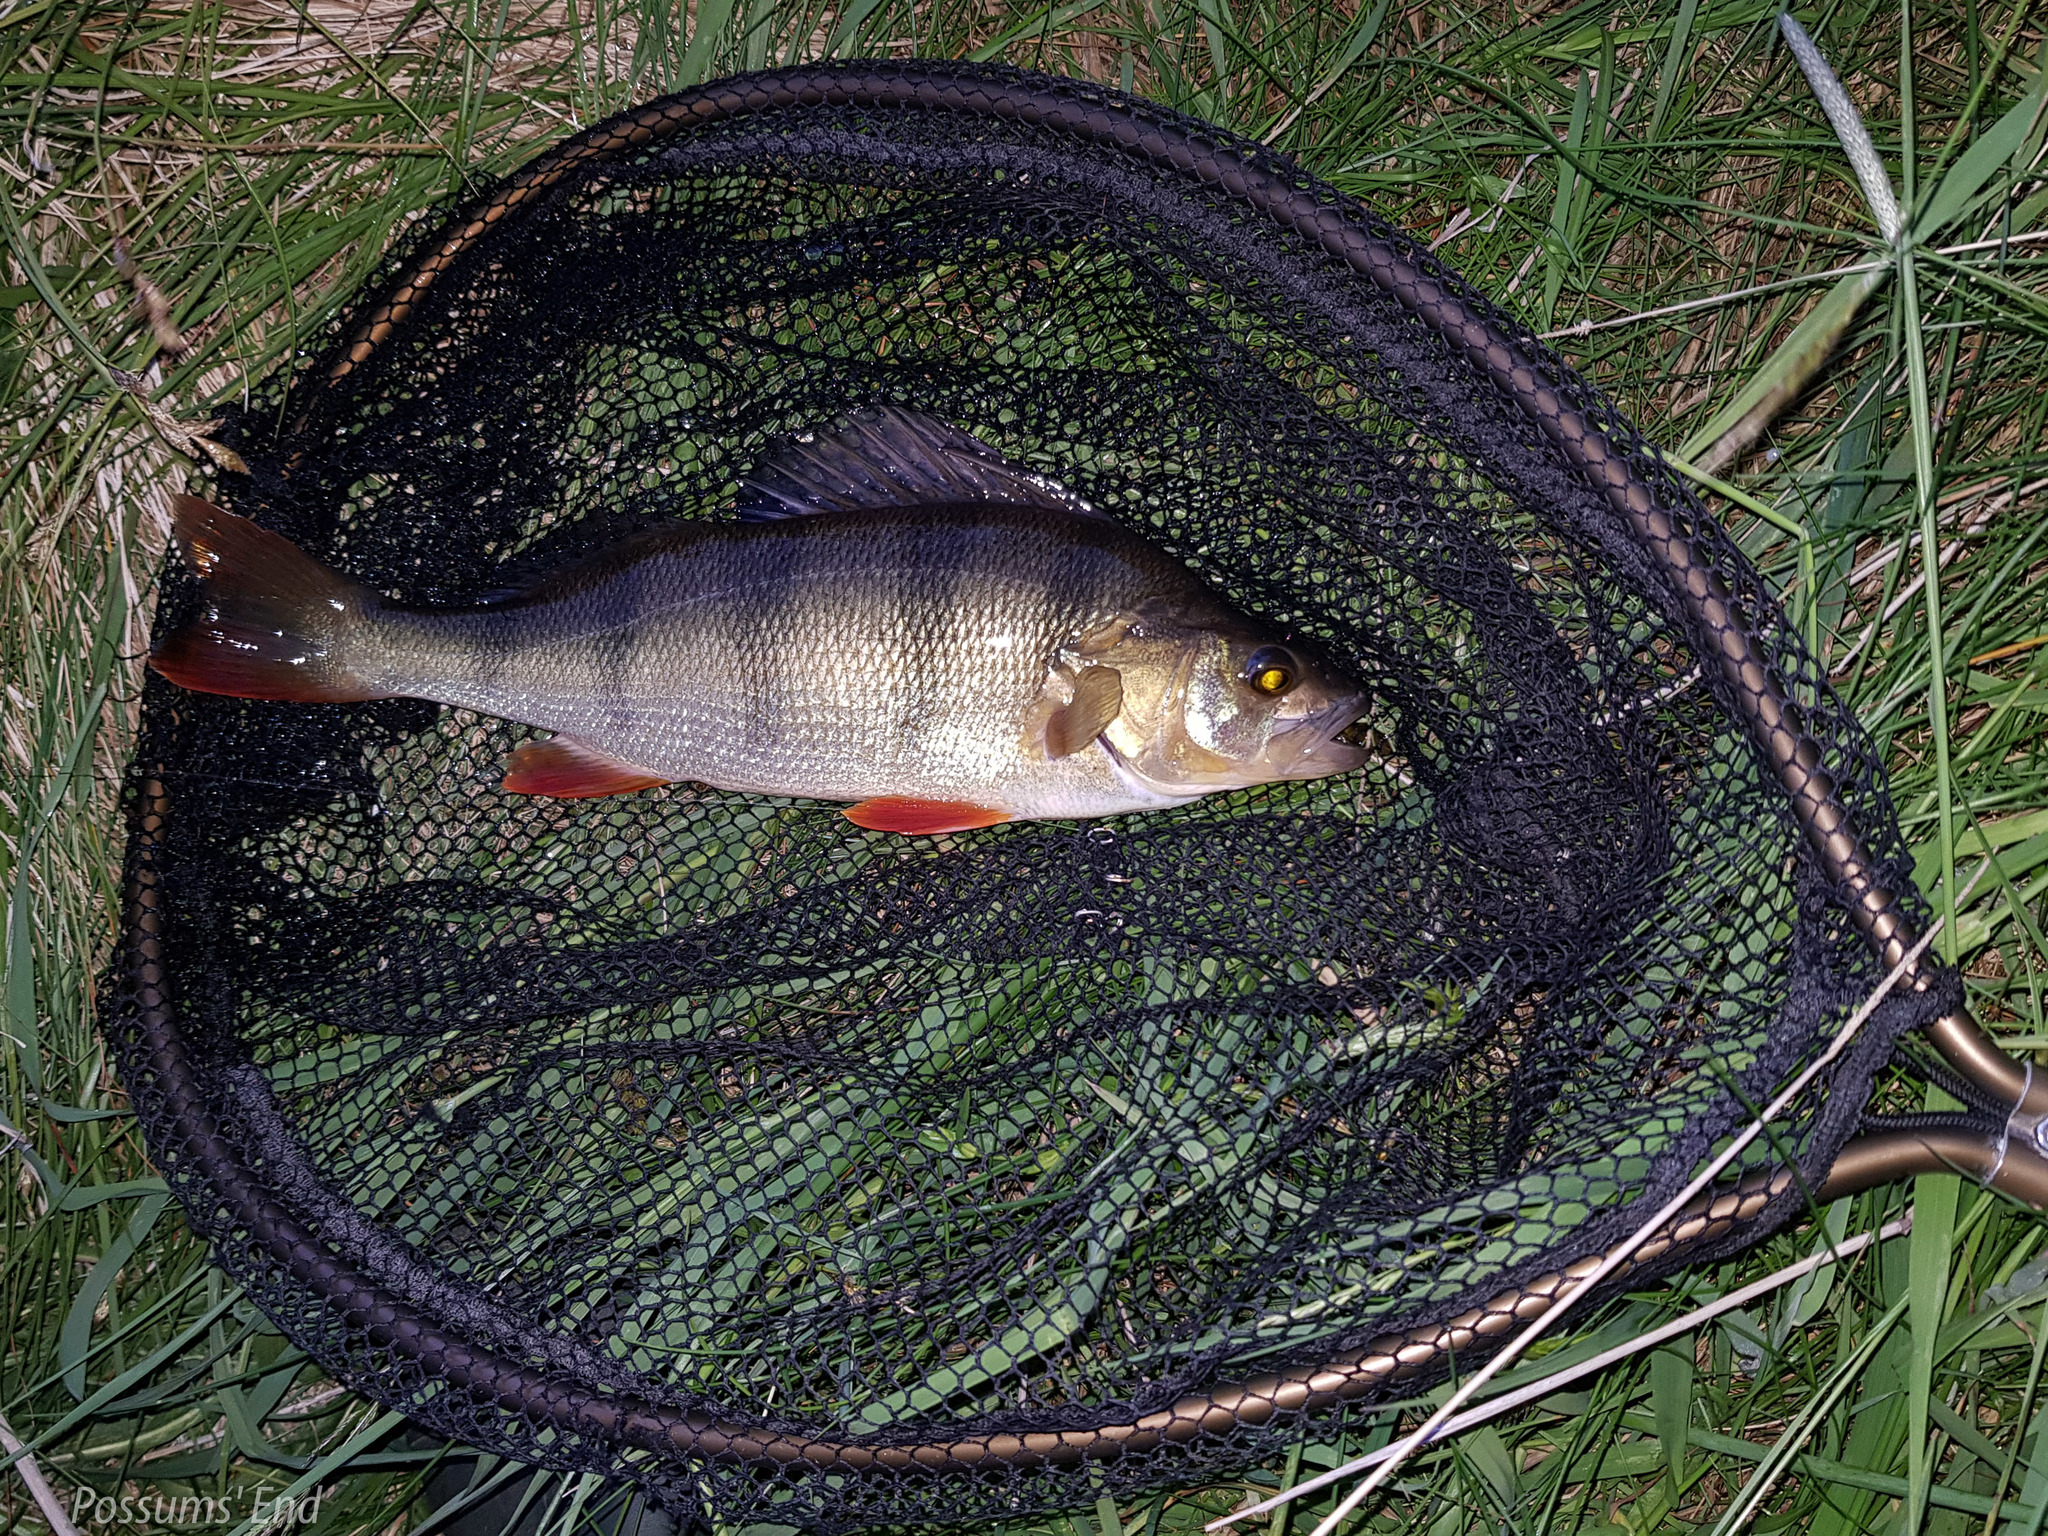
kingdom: Animalia
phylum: Chordata
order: Perciformes
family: Percidae
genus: Perca
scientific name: Perca fluviatilis
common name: Perch
